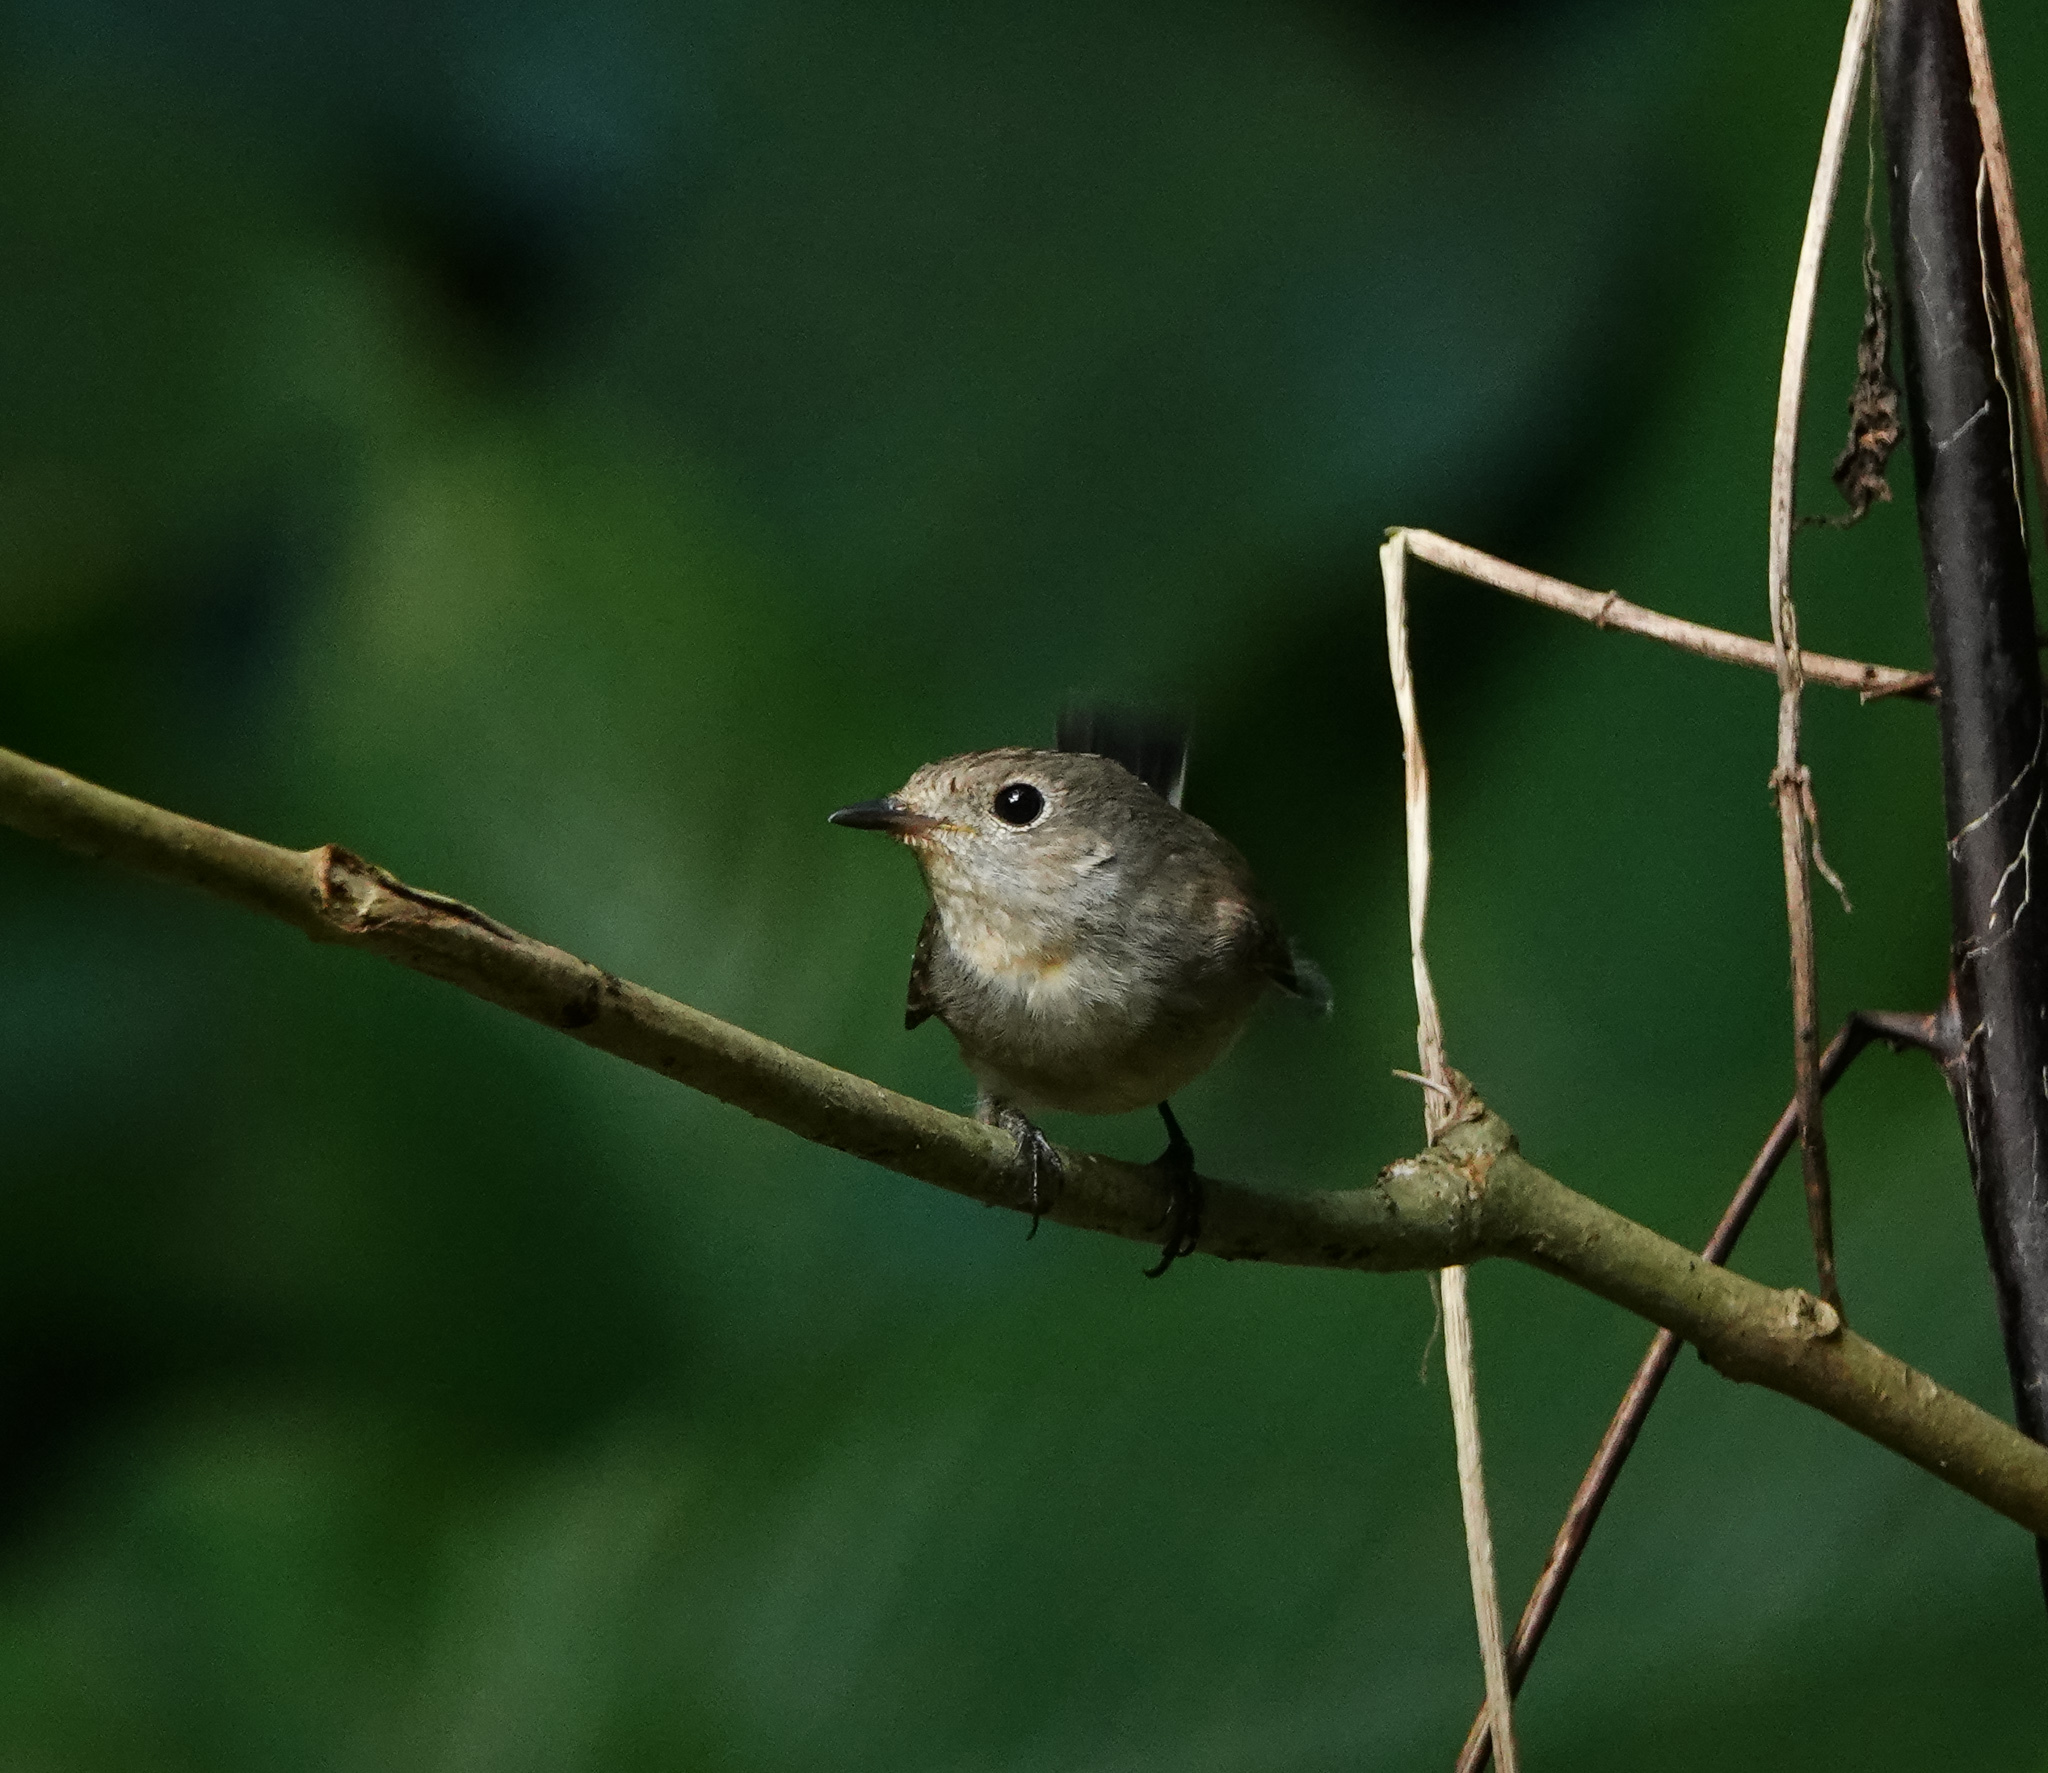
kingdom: Animalia
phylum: Chordata
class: Aves
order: Passeriformes
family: Muscicapidae
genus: Ficedula
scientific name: Ficedula albicilla
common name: Taiga flycatcher
